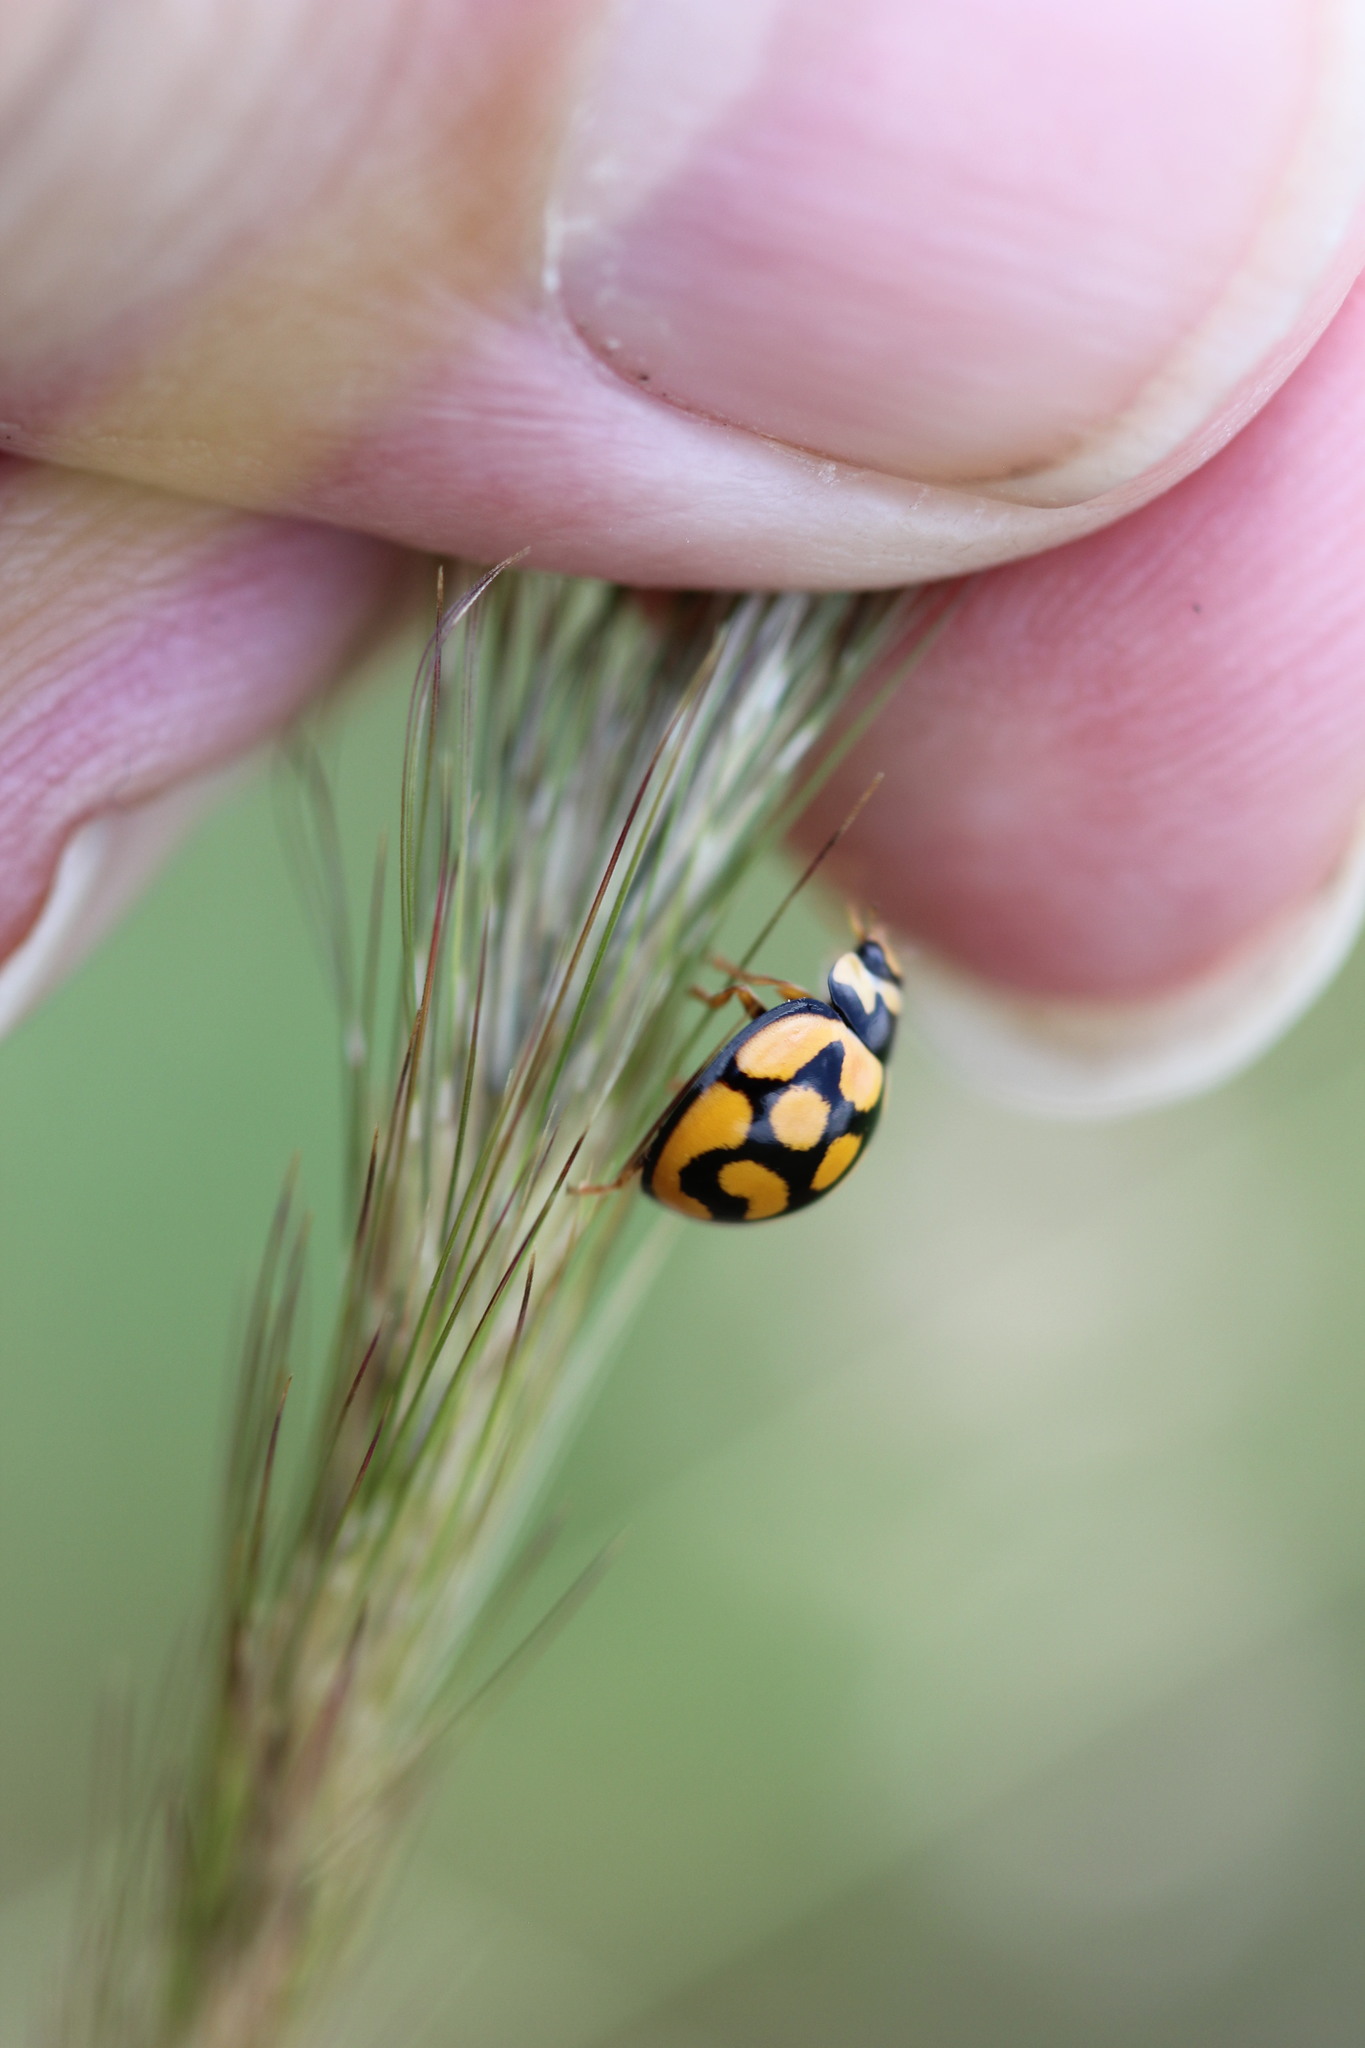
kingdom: Animalia
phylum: Arthropoda
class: Insecta
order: Coleoptera
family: Coccinellidae
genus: Cheilomenes
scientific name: Cheilomenes lunata
